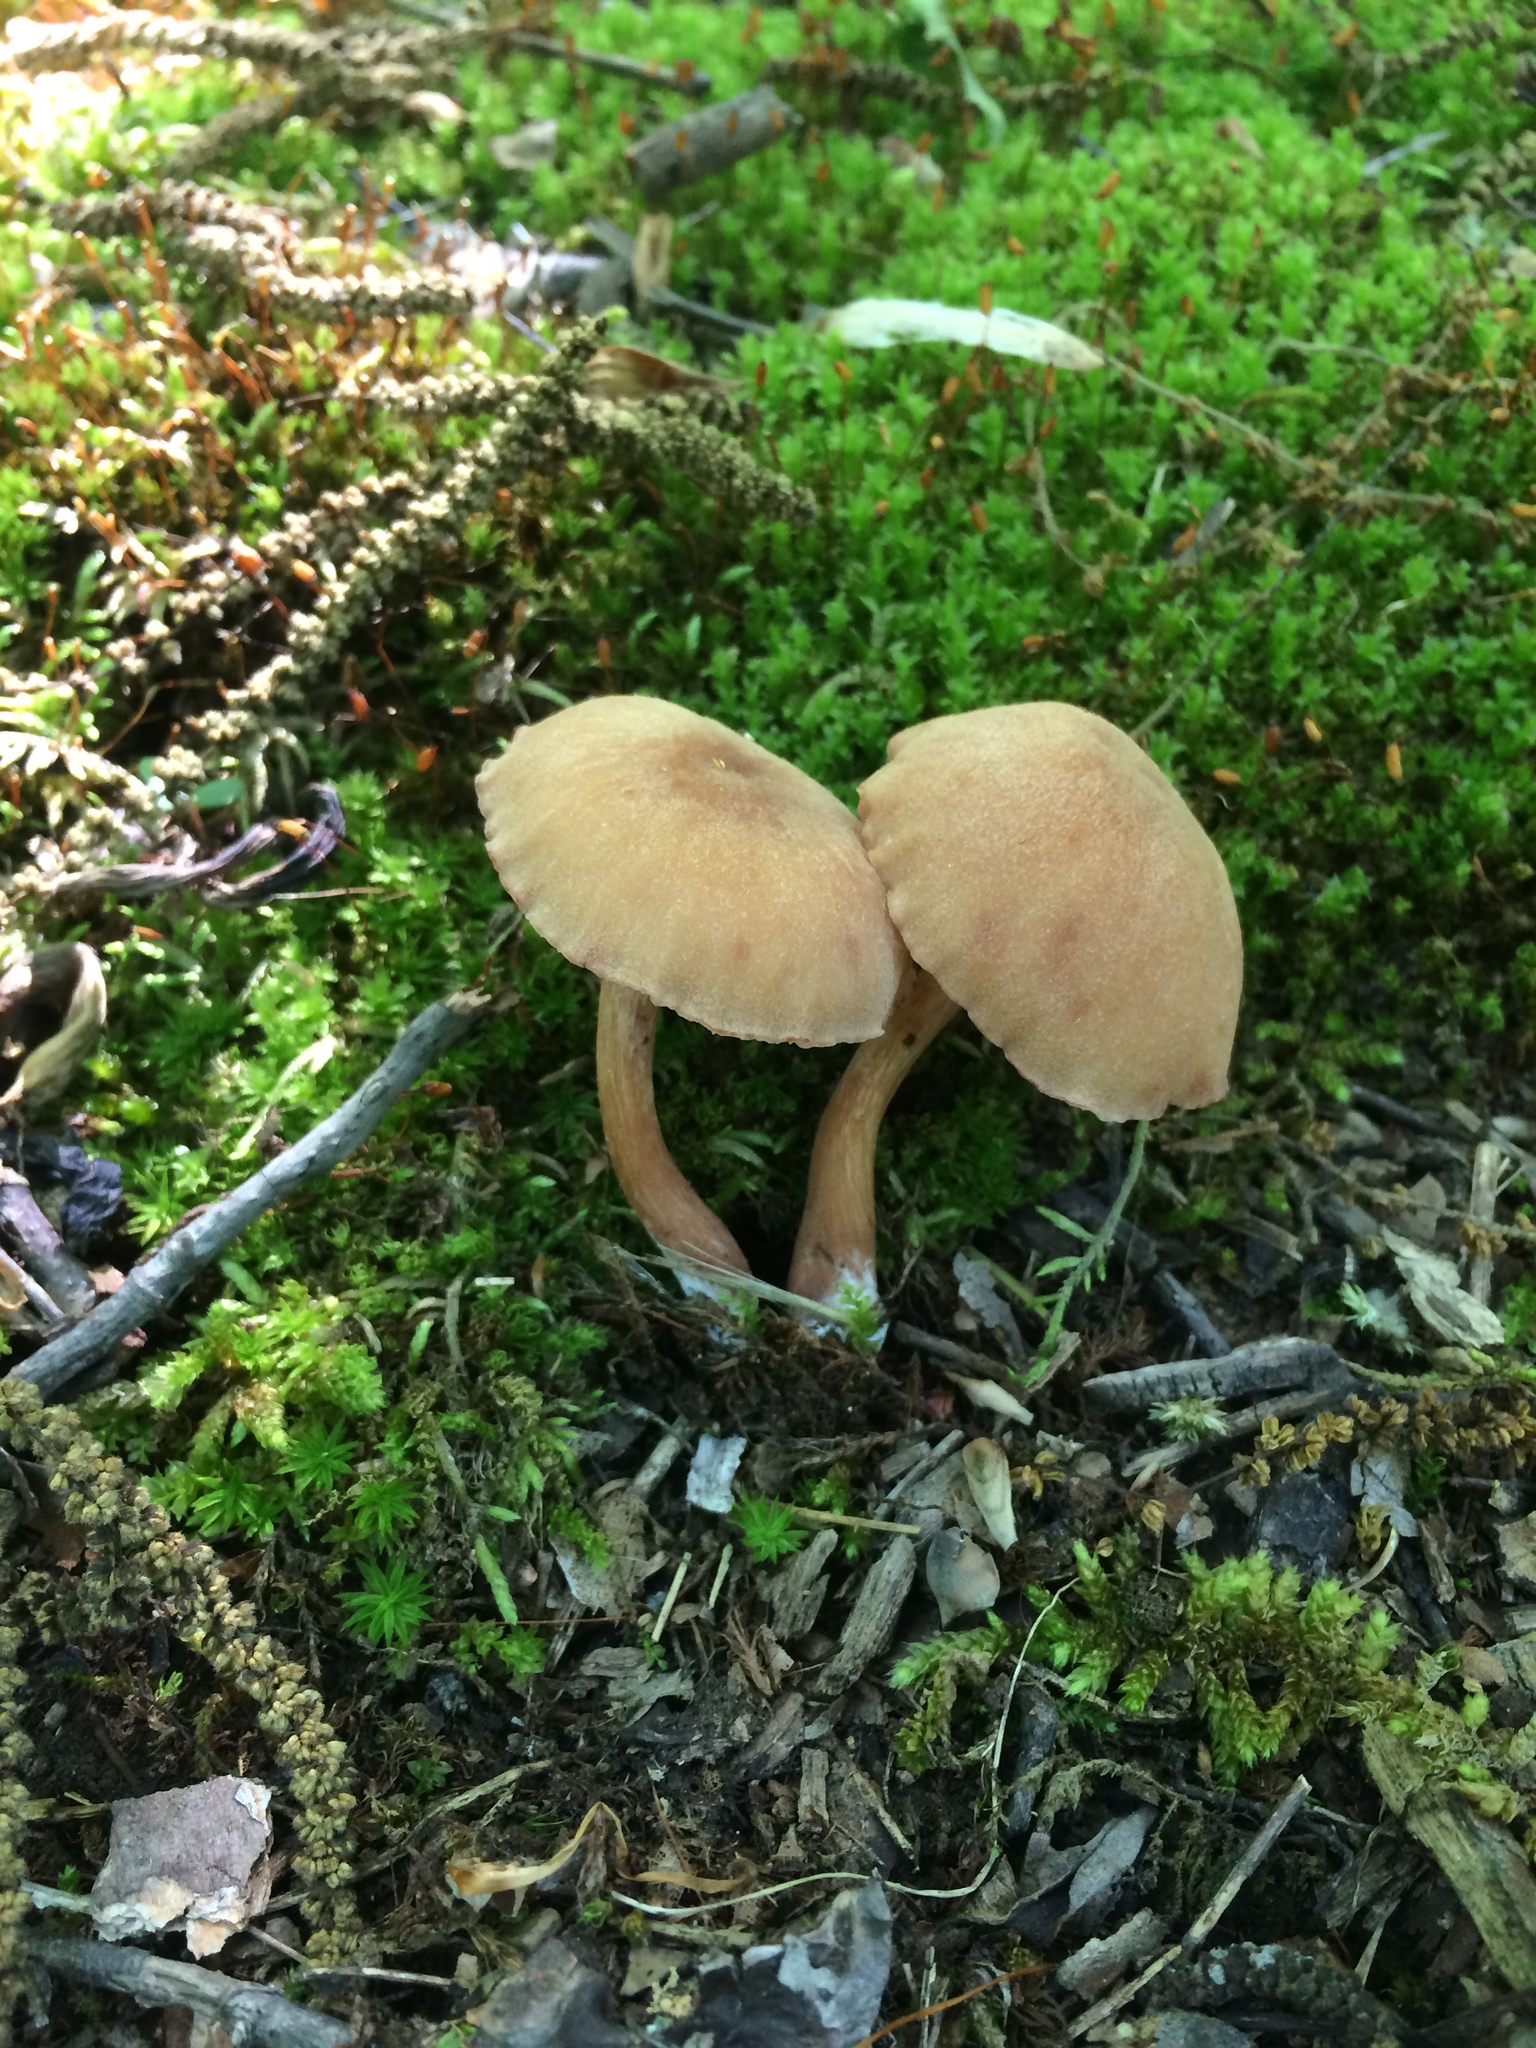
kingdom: Fungi
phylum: Basidiomycota
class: Agaricomycetes
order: Agaricales
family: Hydnangiaceae
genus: Laccaria
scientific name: Laccaria laccata
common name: Deceiver
